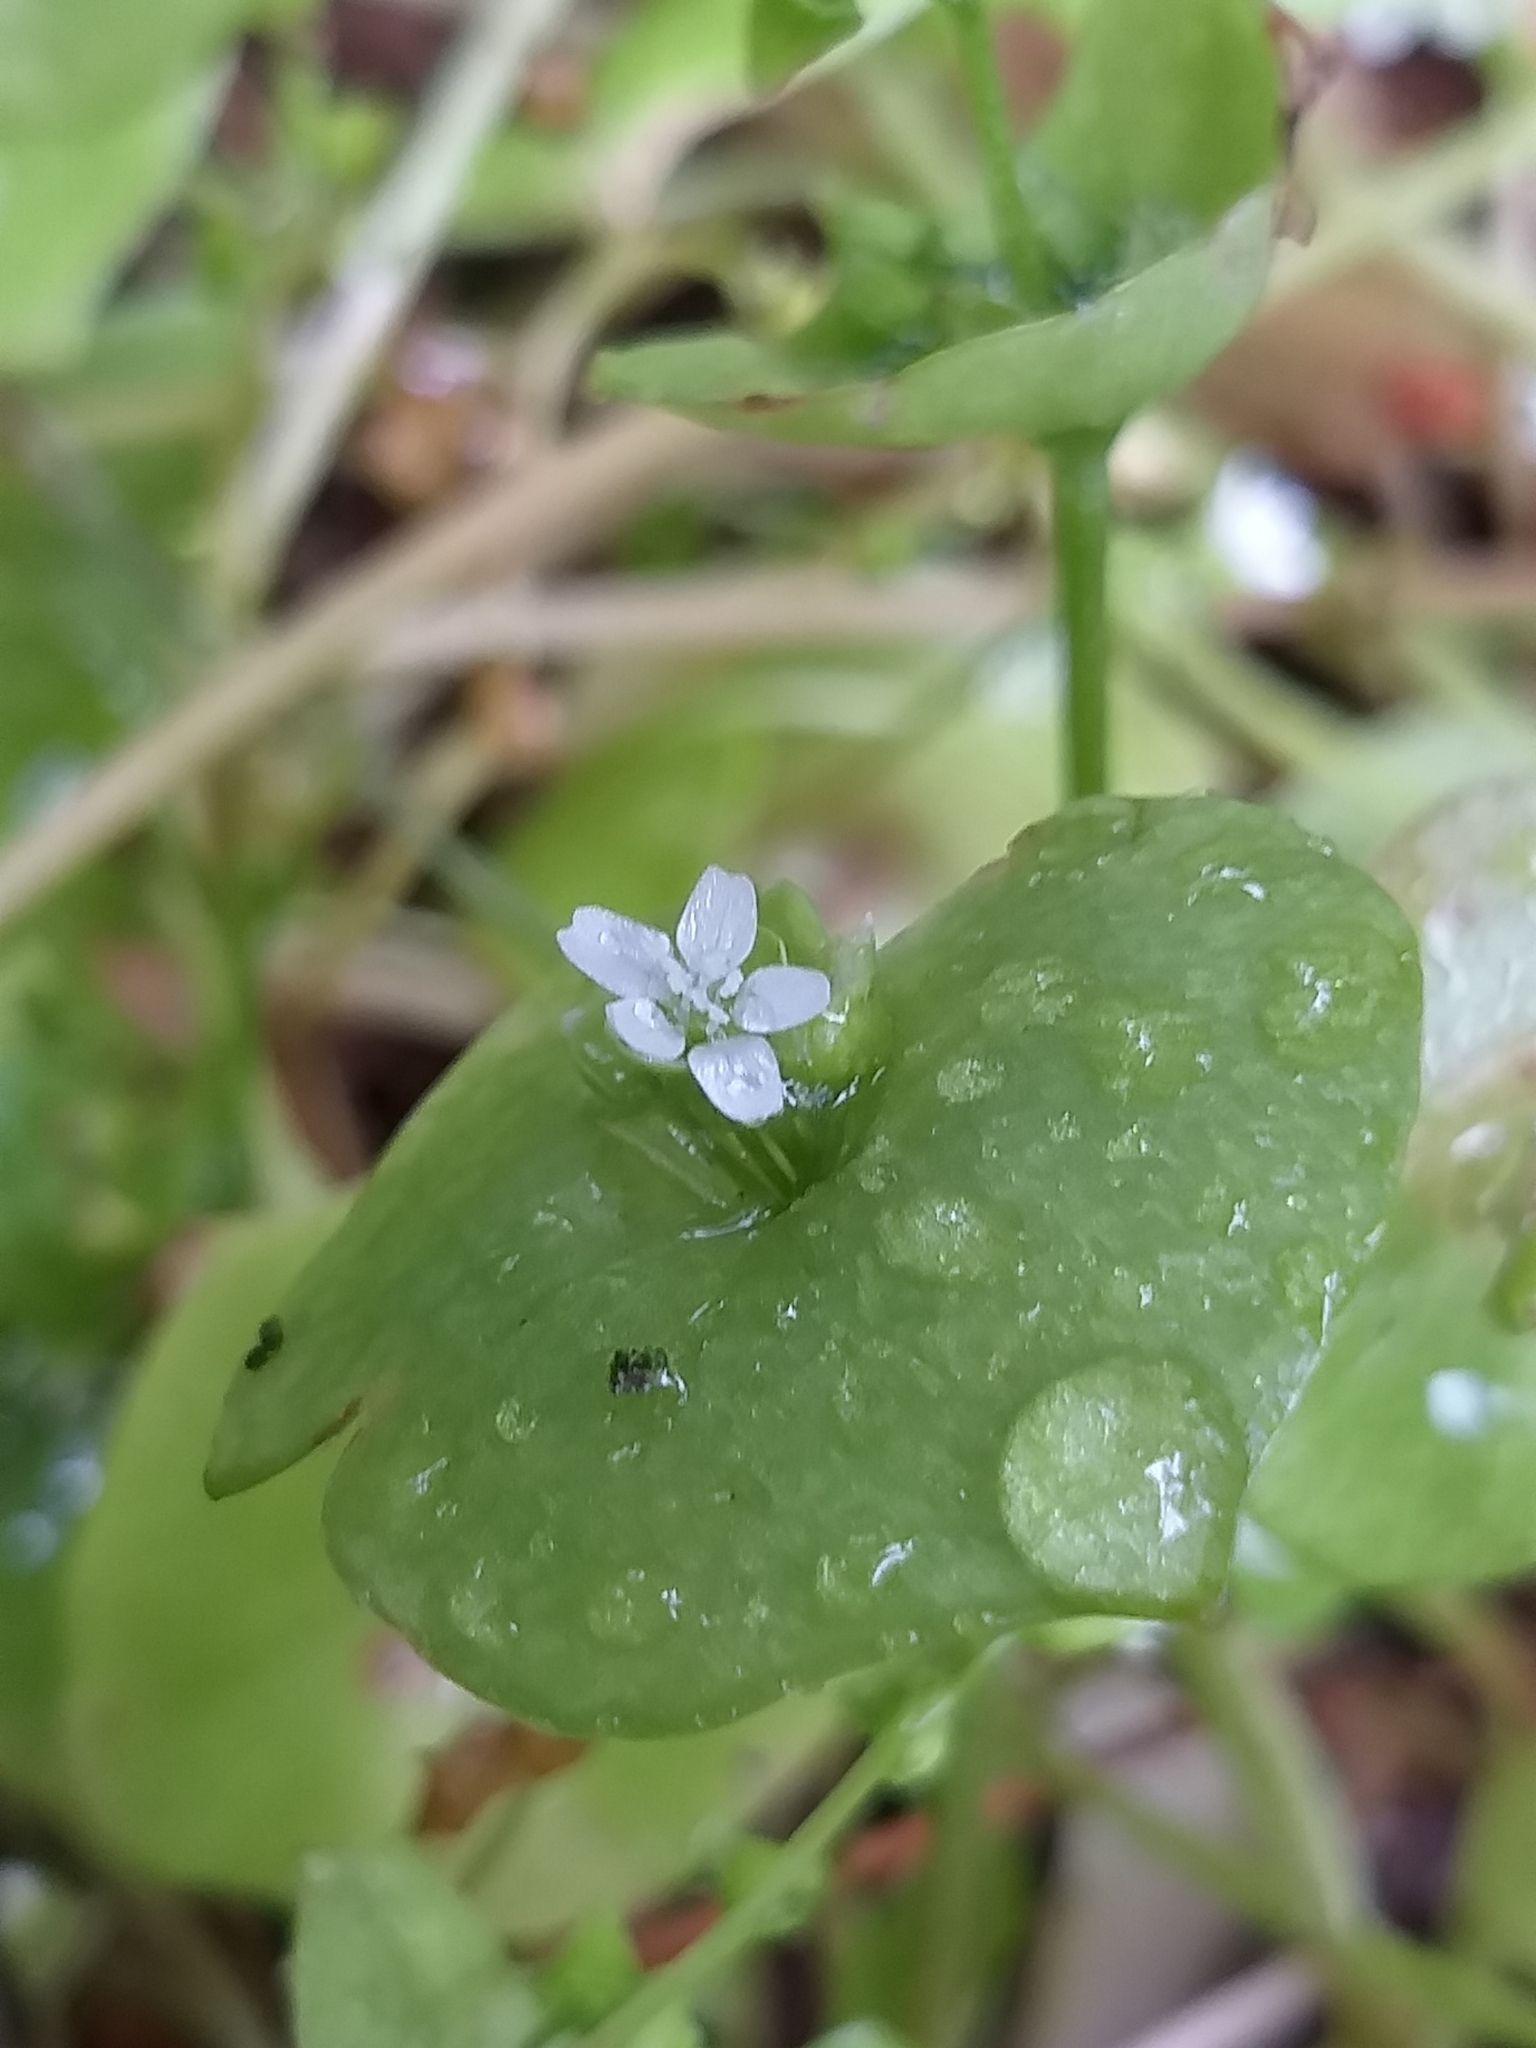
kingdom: Plantae
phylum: Tracheophyta
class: Magnoliopsida
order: Caryophyllales
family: Montiaceae
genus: Claytonia
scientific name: Claytonia perfoliata
